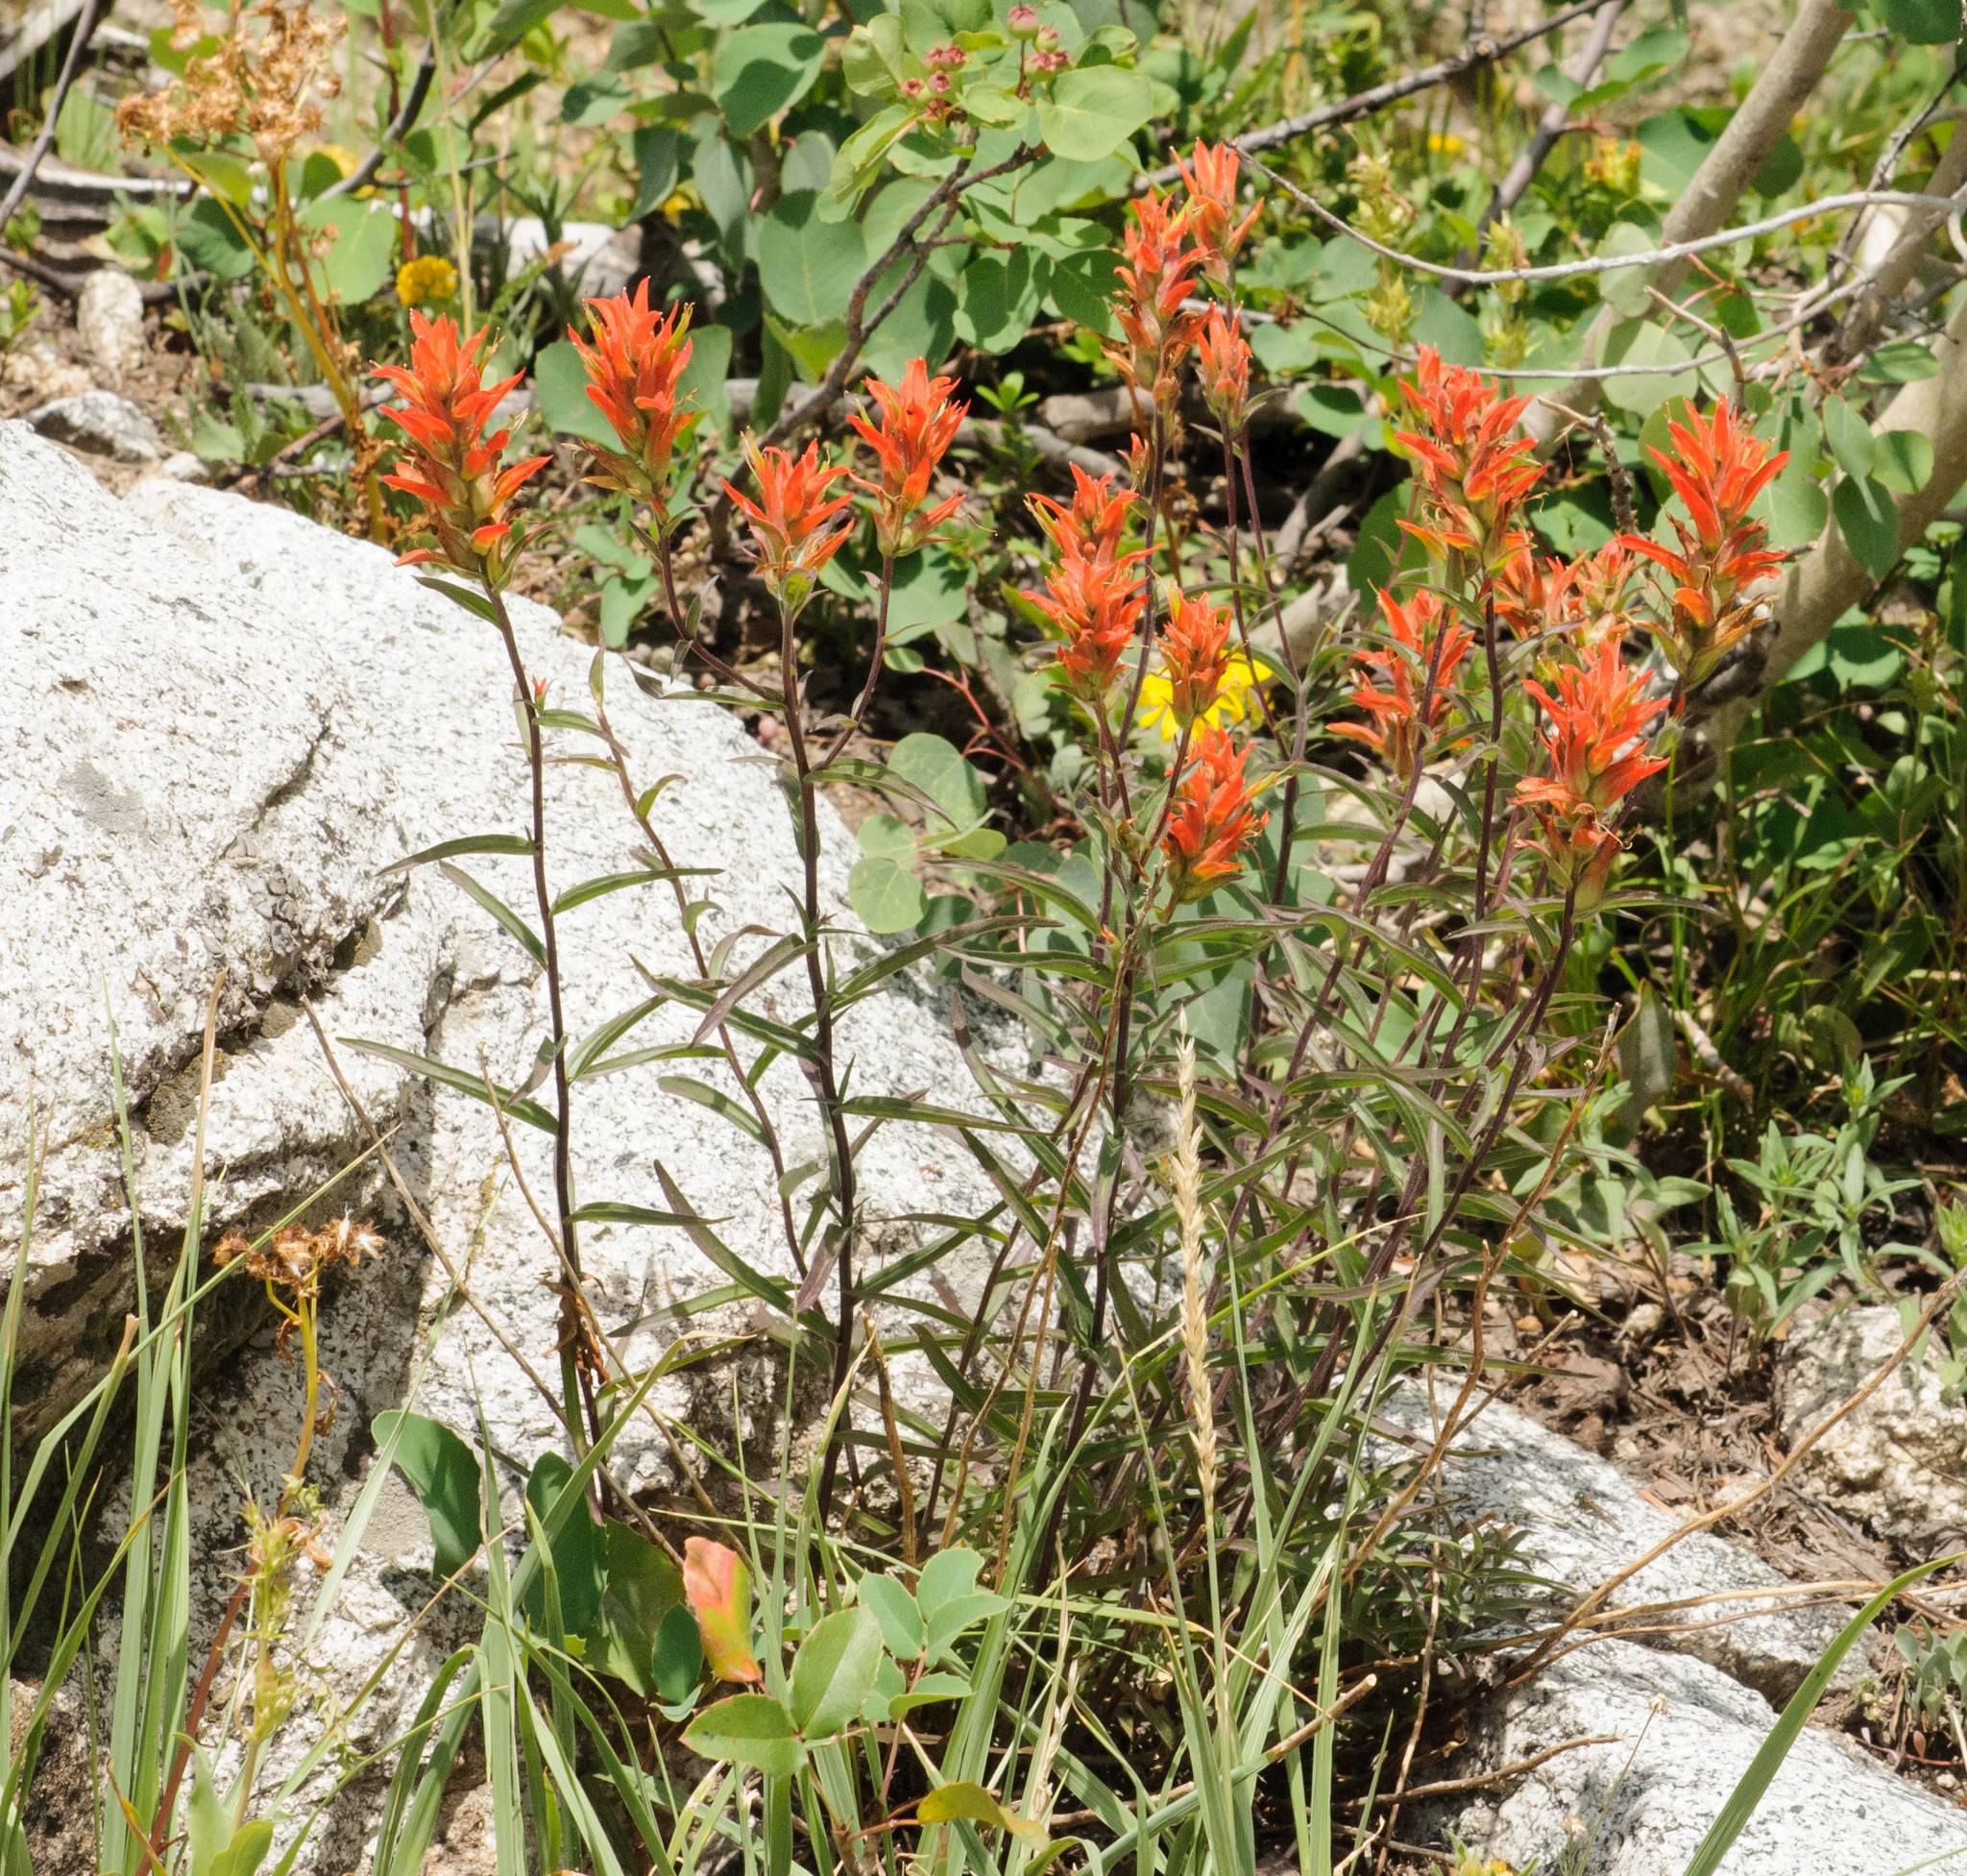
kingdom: Plantae
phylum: Tracheophyta
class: Magnoliopsida
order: Lamiales
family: Orobanchaceae
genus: Castilleja
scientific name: Castilleja miniata
